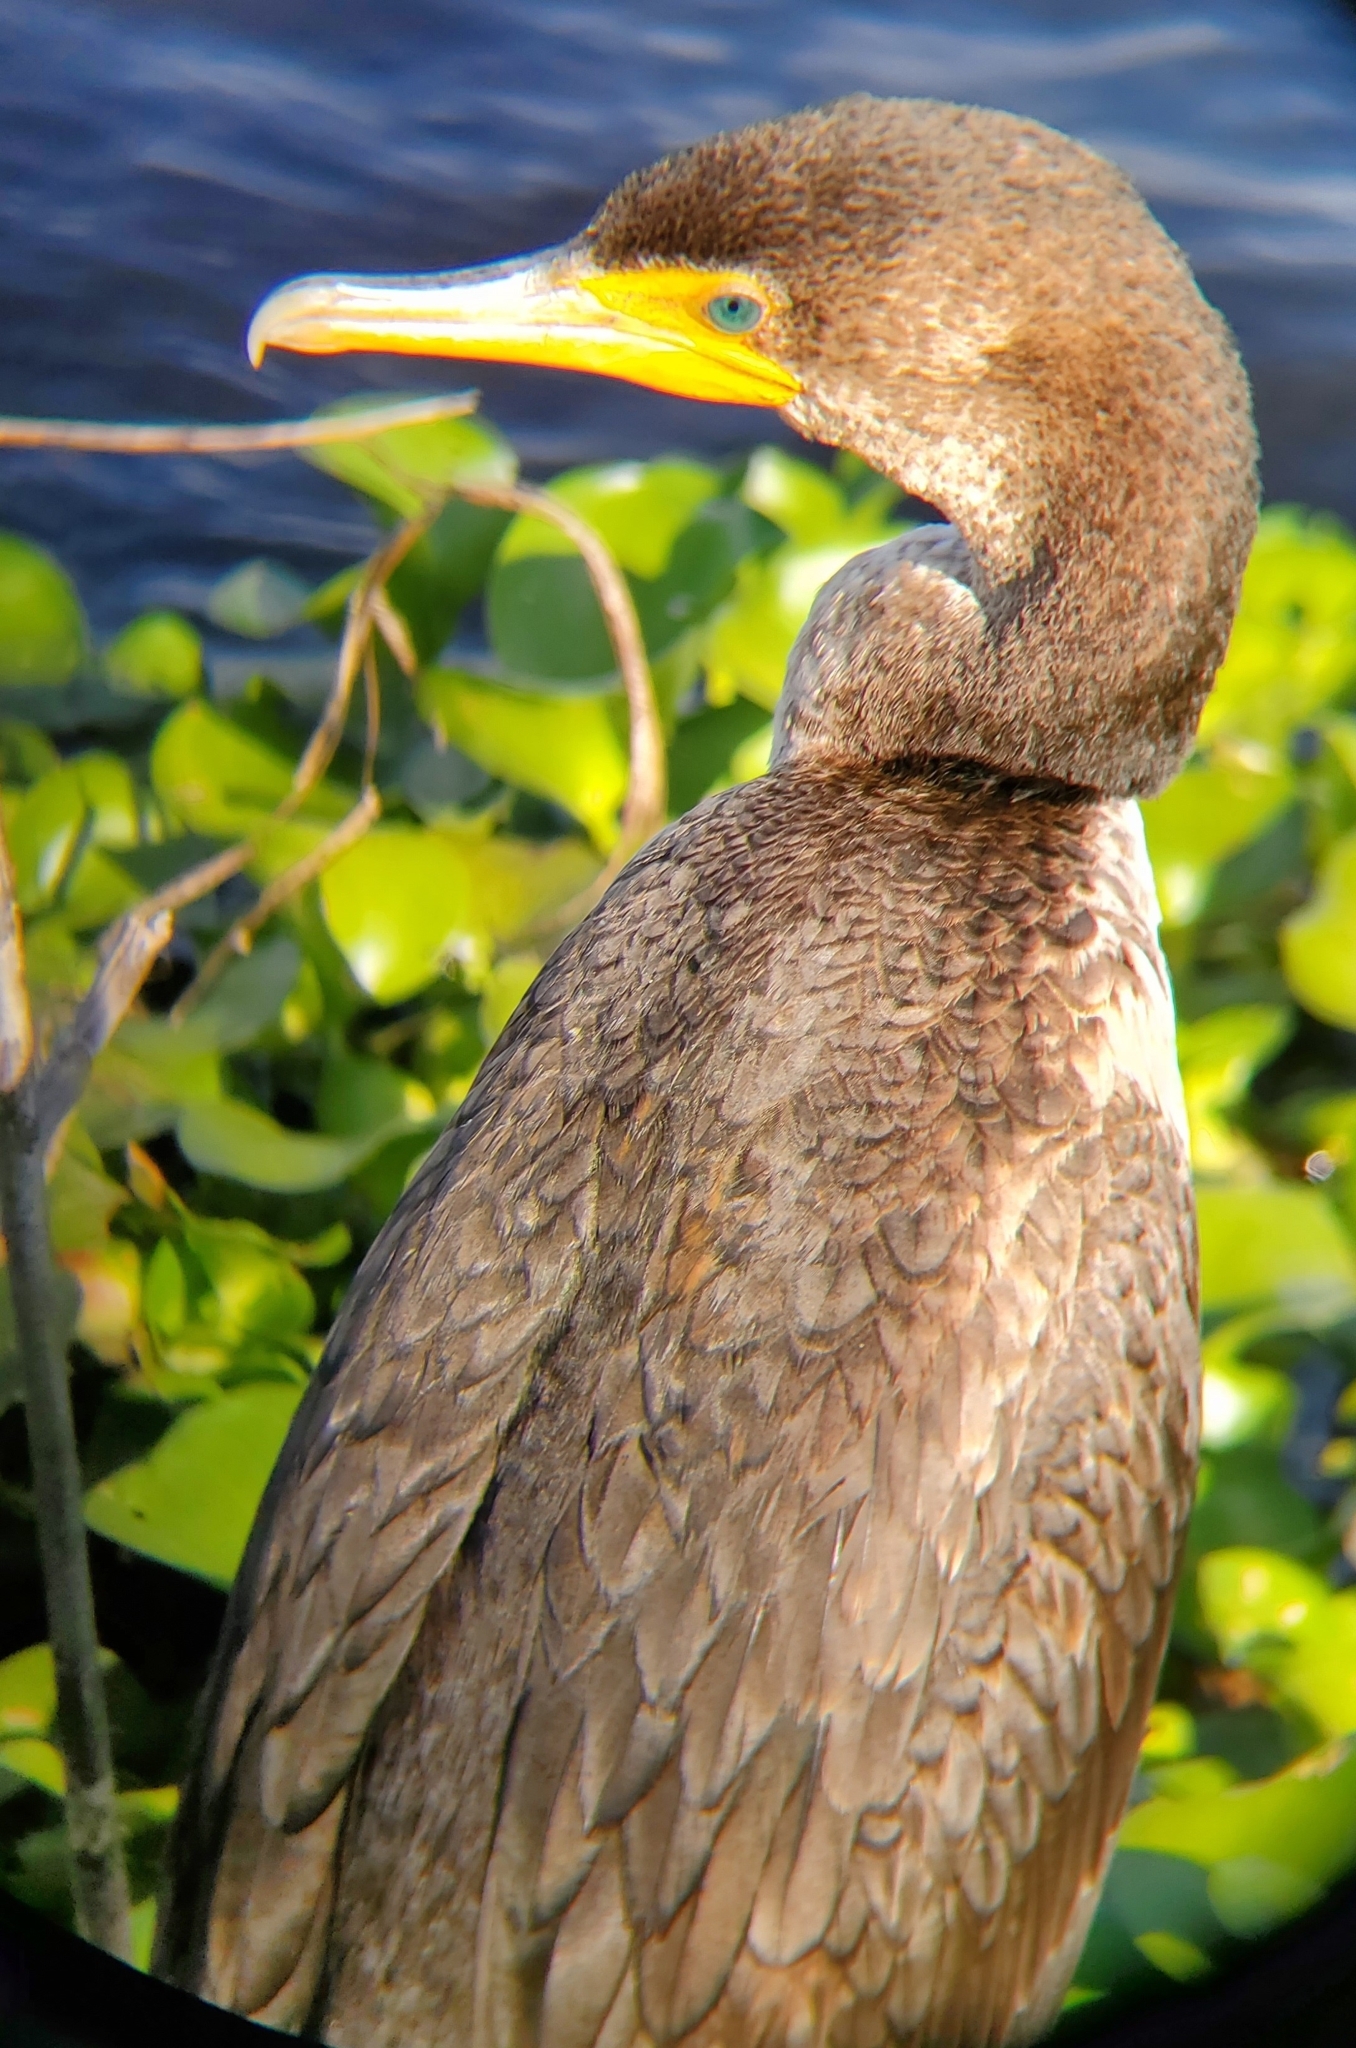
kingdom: Animalia
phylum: Chordata
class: Aves
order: Suliformes
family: Phalacrocoracidae
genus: Phalacrocorax
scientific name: Phalacrocorax auritus
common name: Double-crested cormorant
